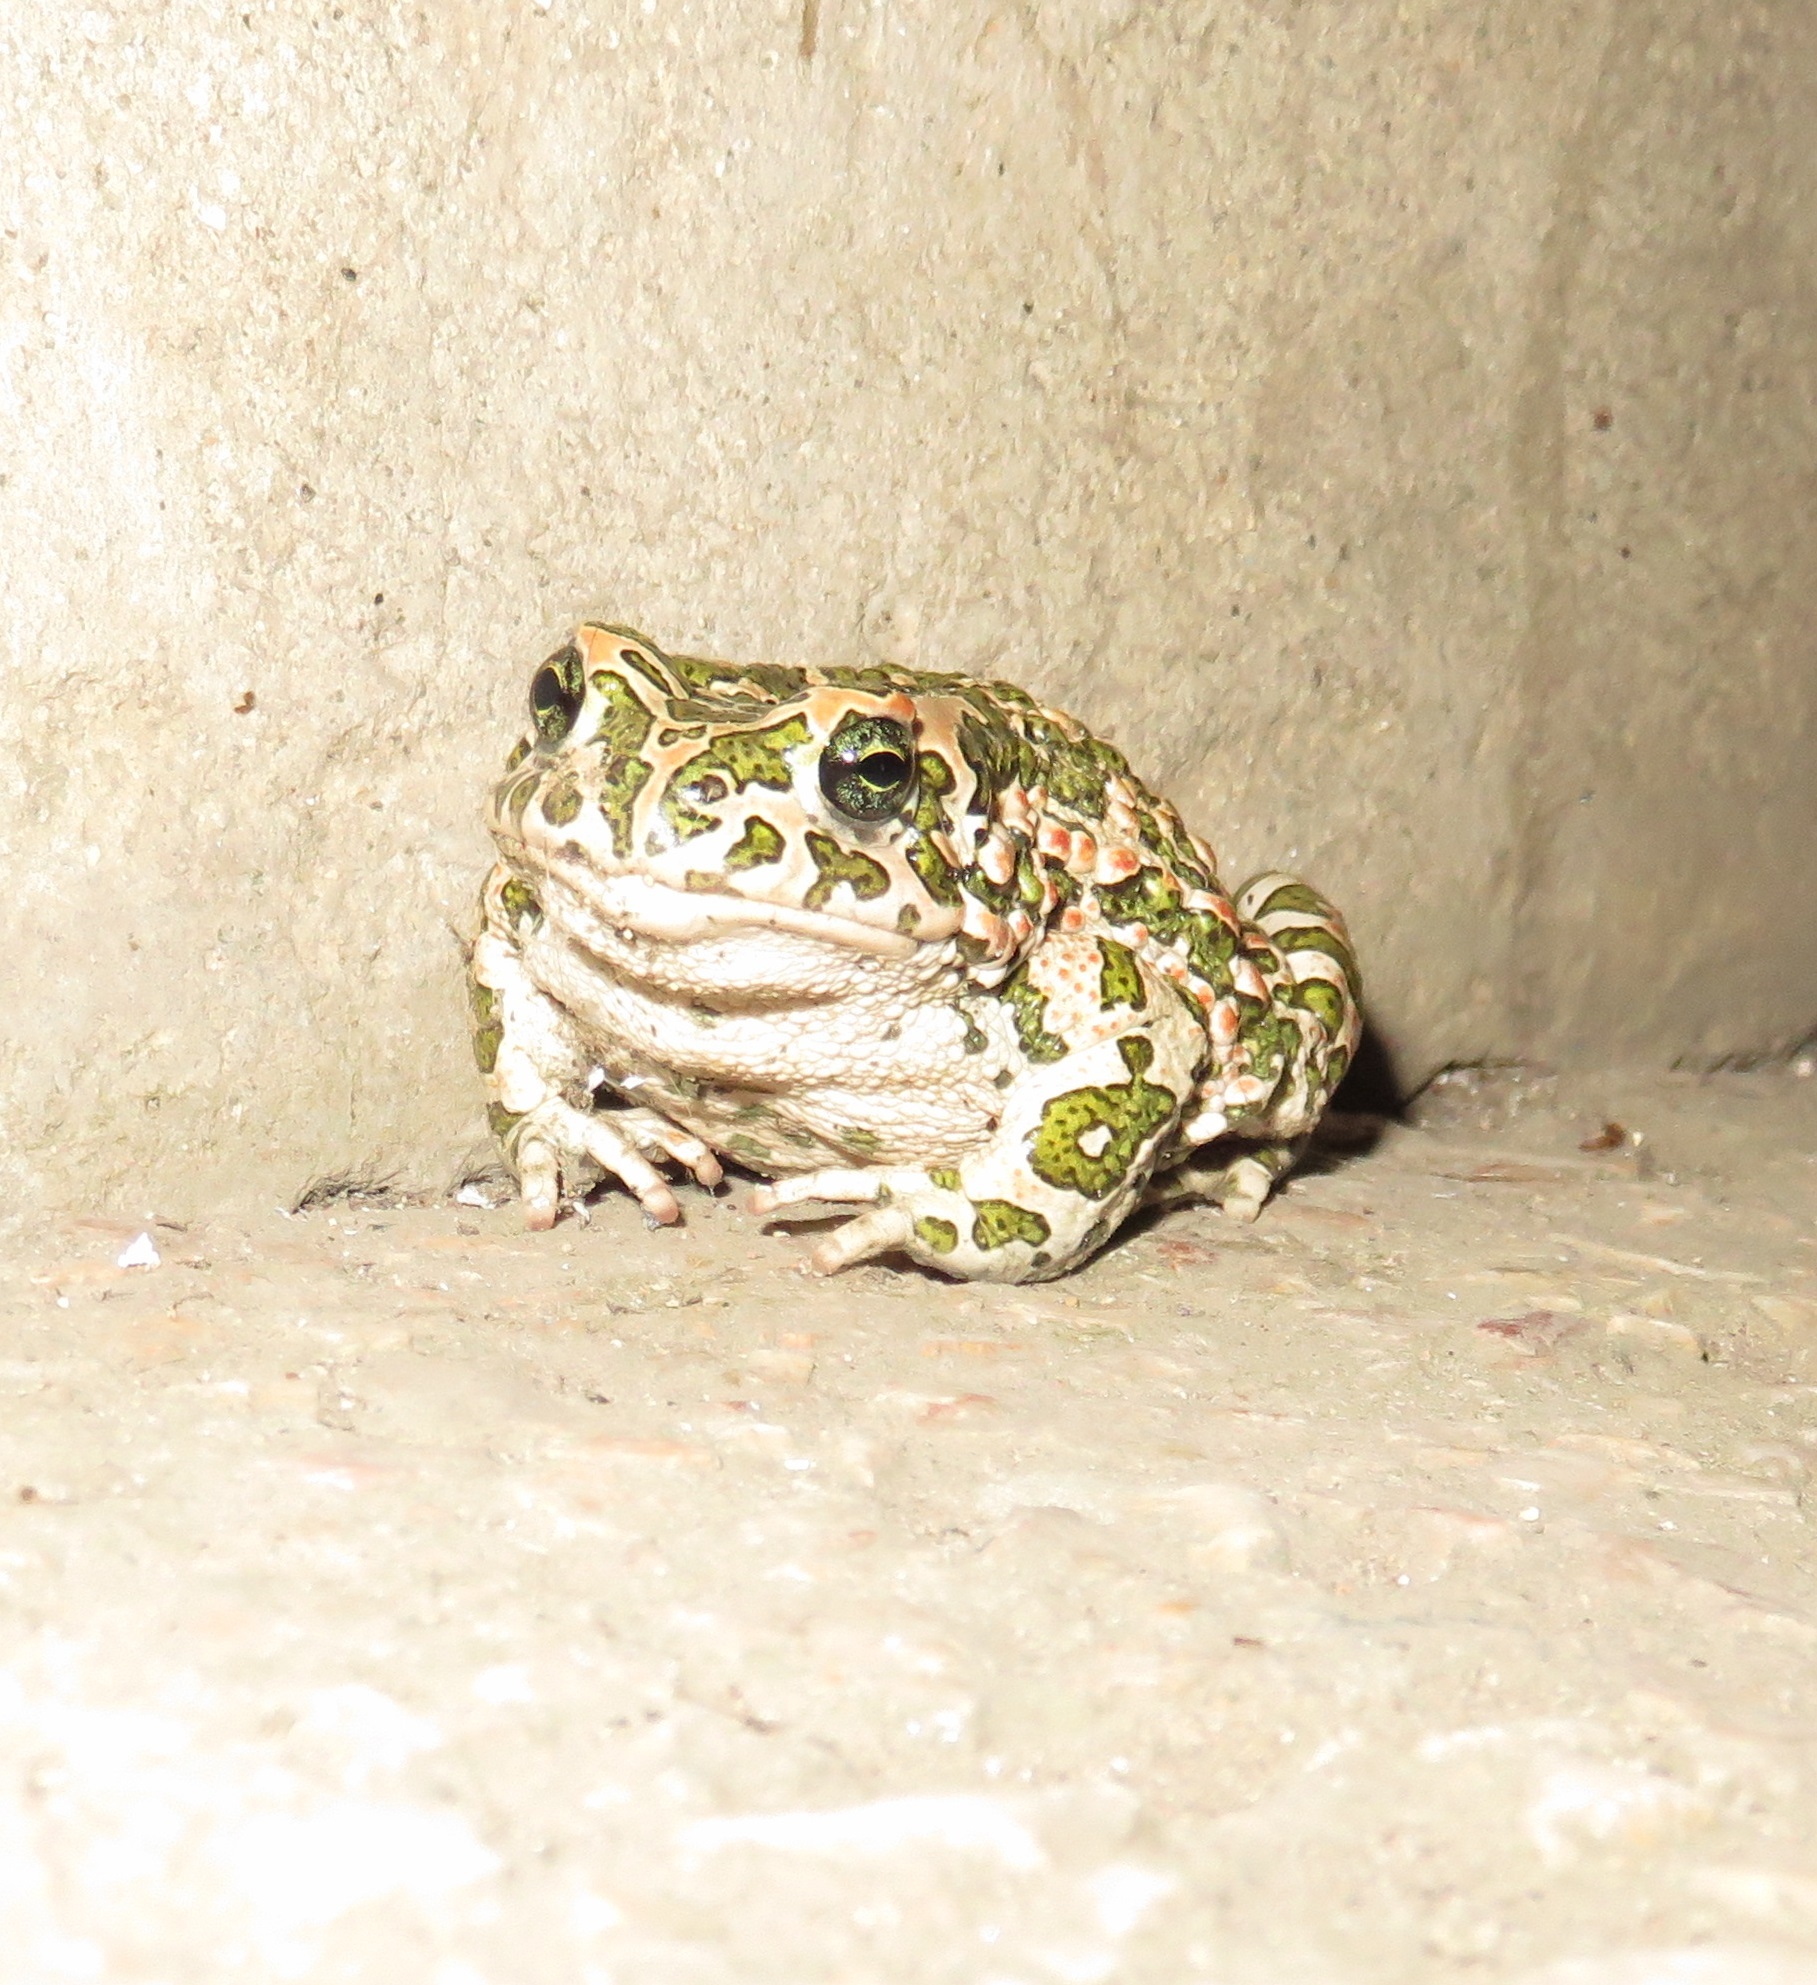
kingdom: Animalia
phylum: Chordata
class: Amphibia
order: Anura
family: Bufonidae
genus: Bufotes
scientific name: Bufotes viridis
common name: European green toad
